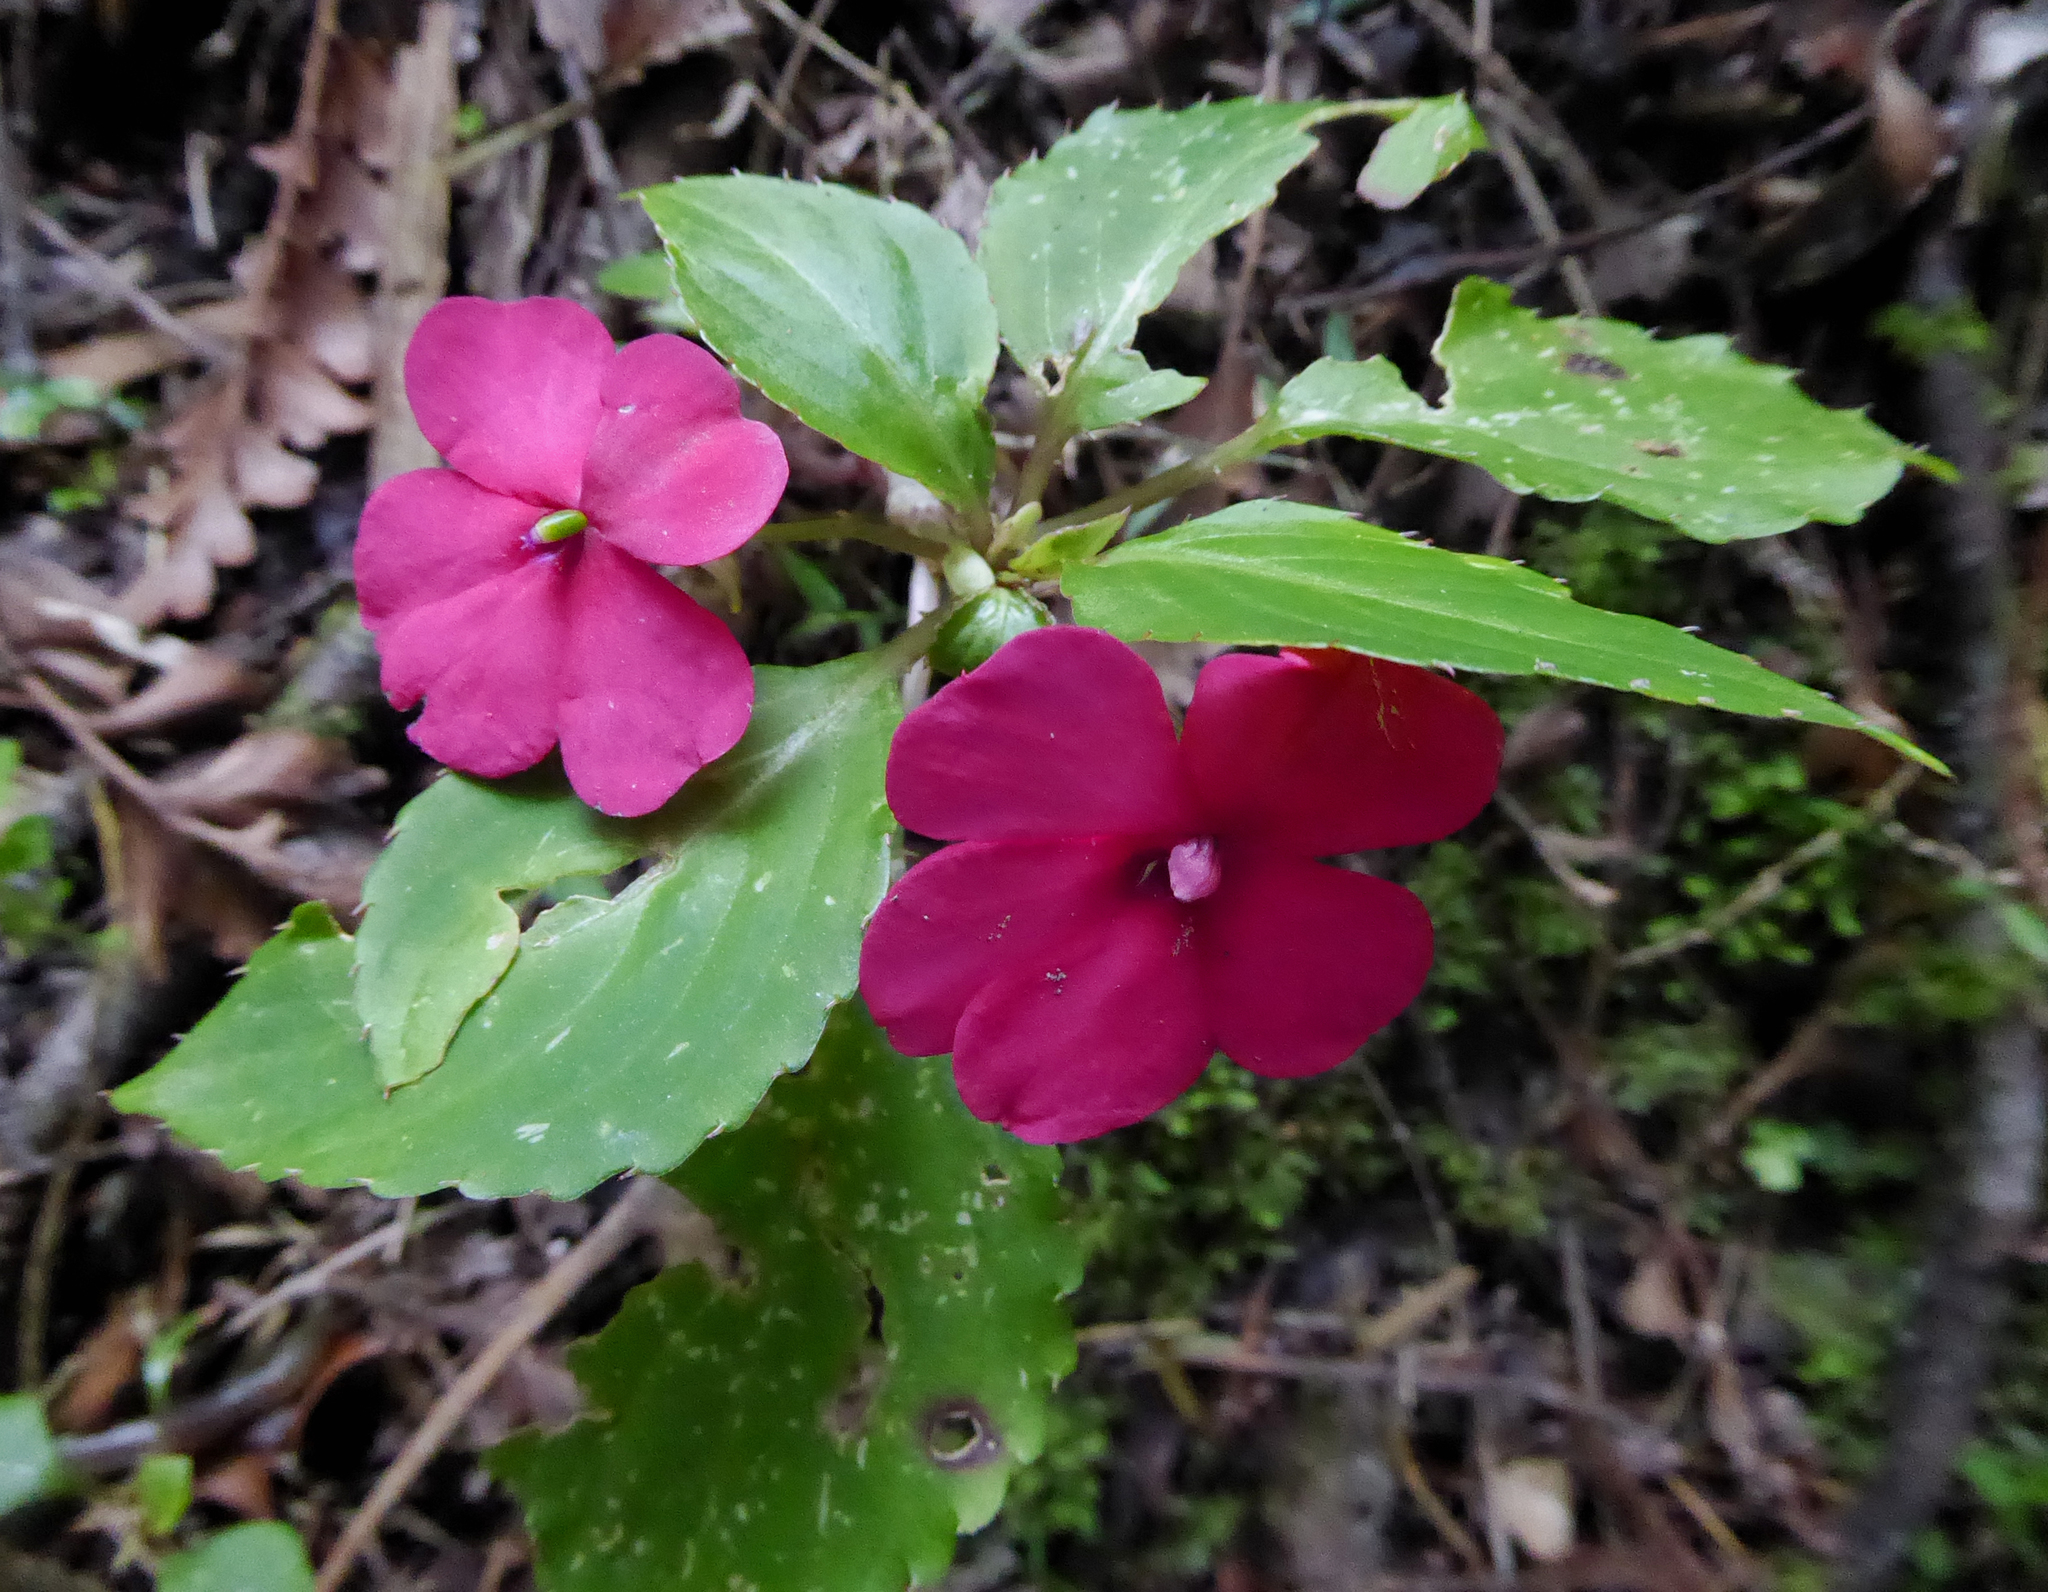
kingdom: Plantae
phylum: Tracheophyta
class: Magnoliopsida
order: Ericales
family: Balsaminaceae
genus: Impatiens
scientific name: Impatiens walleriana
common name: Buzzy lizzy
